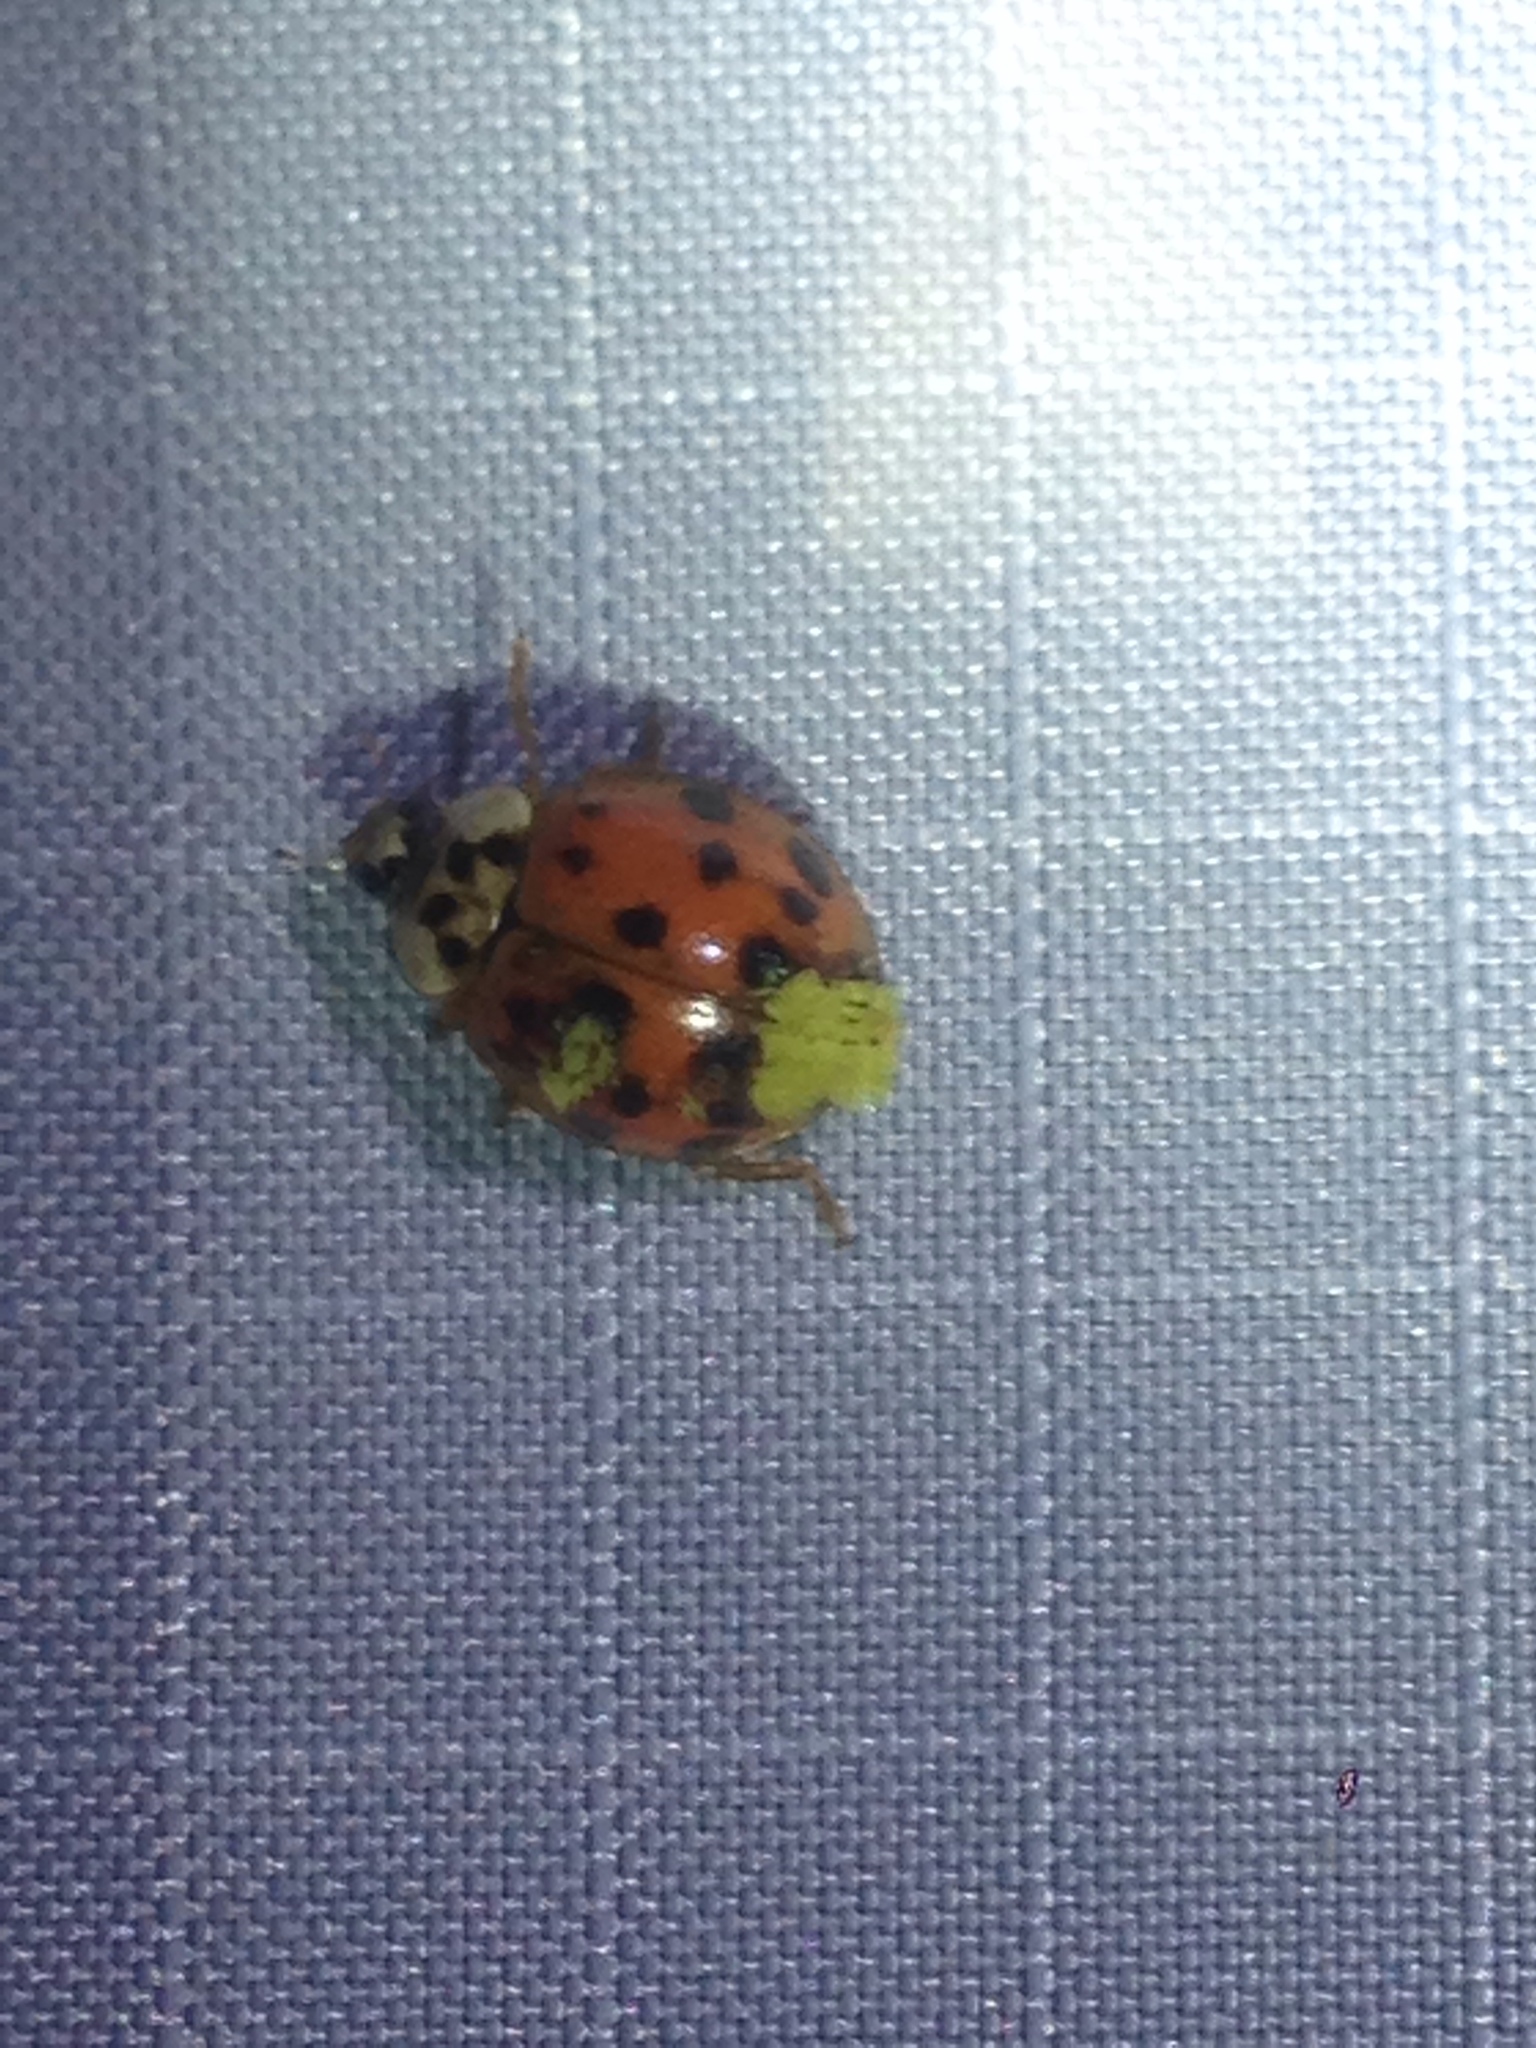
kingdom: Animalia
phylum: Arthropoda
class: Insecta
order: Coleoptera
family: Coccinellidae
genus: Harmonia
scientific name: Harmonia axyridis
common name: Harlequin ladybird
